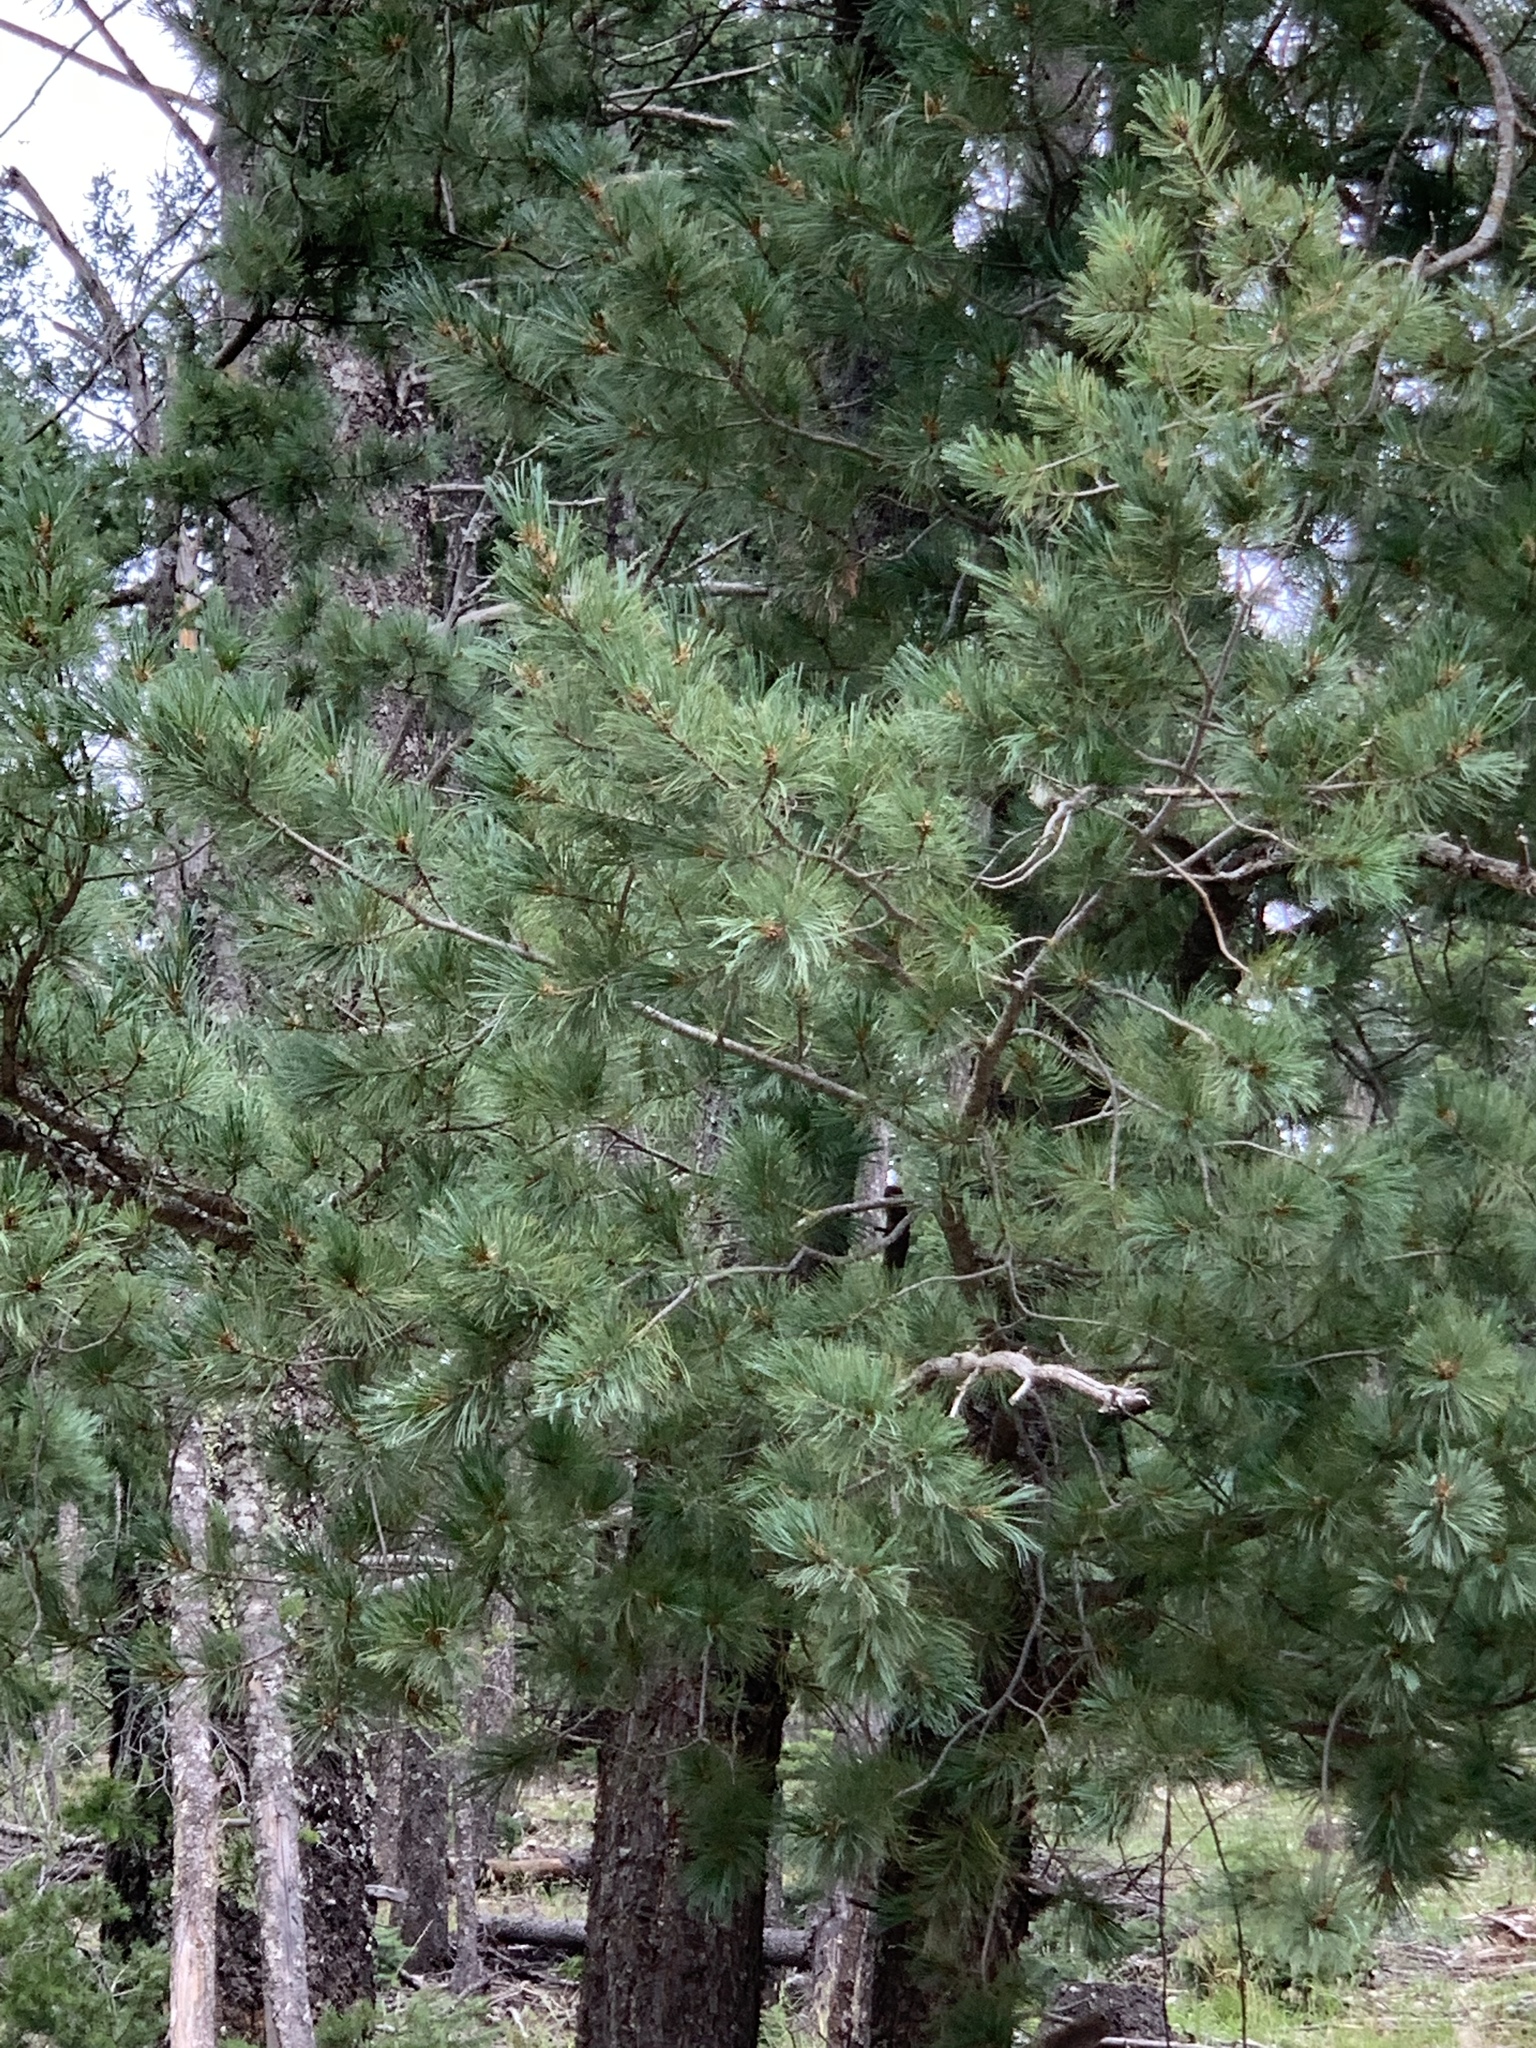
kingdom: Plantae
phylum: Tracheophyta
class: Pinopsida
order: Pinales
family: Pinaceae
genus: Pinus
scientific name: Pinus strobiformis
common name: Southwestern white pine
